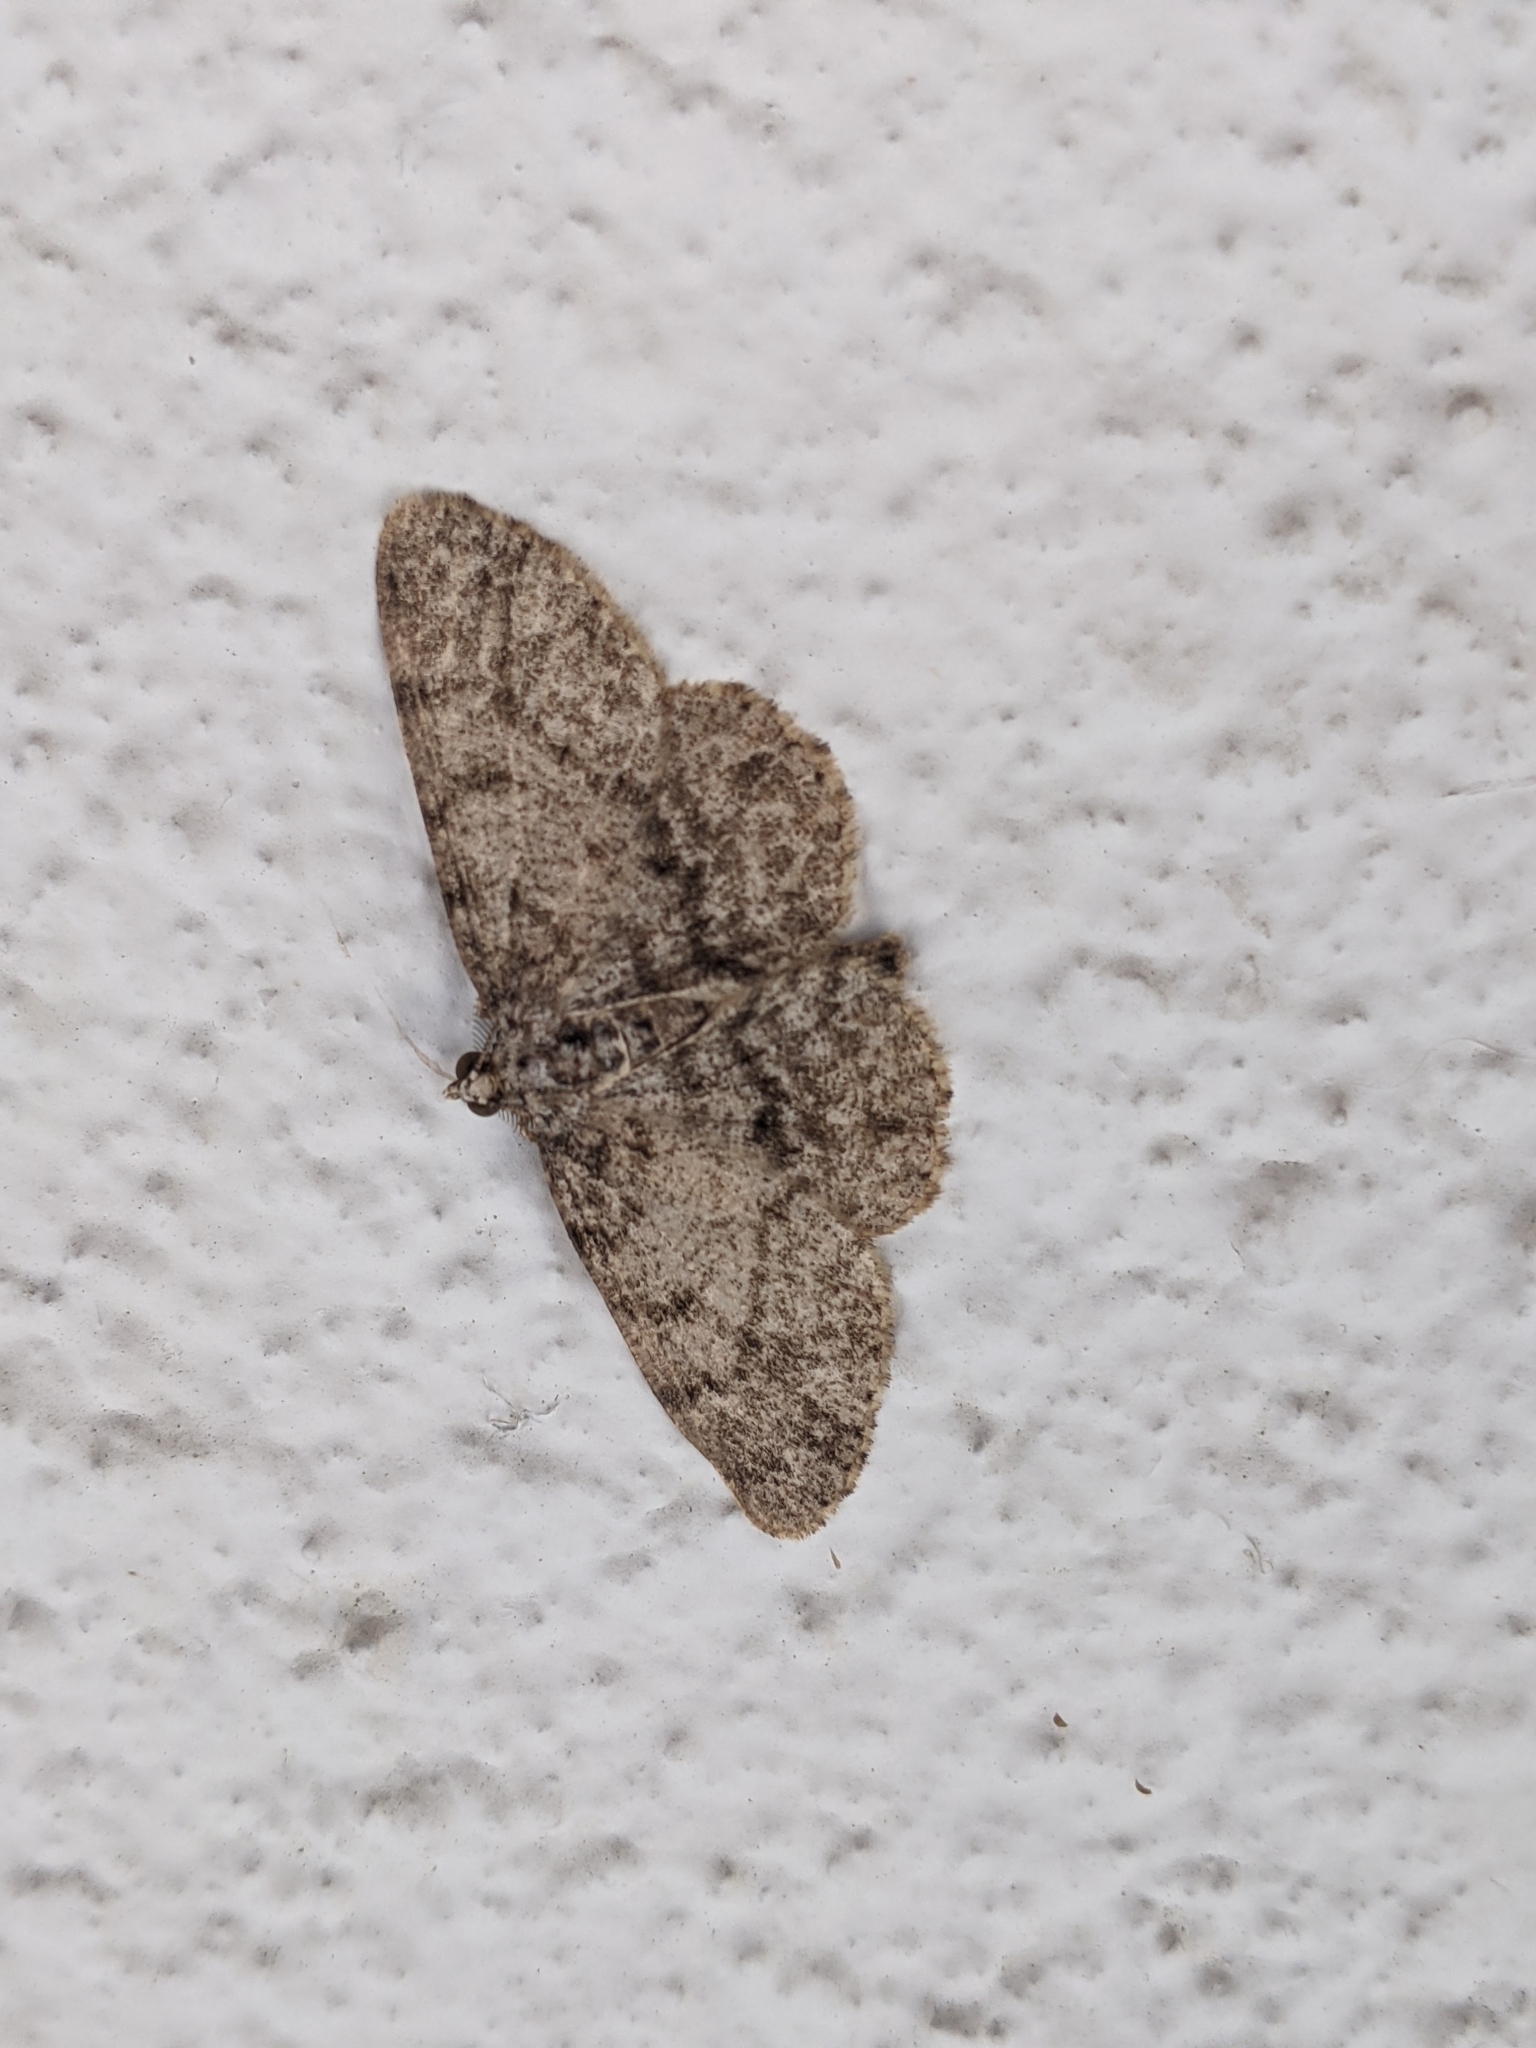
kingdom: Animalia
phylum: Arthropoda
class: Insecta
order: Lepidoptera
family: Geometridae
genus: Protoboarmia
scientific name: Protoboarmia porcelaria
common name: Porcelain gray
